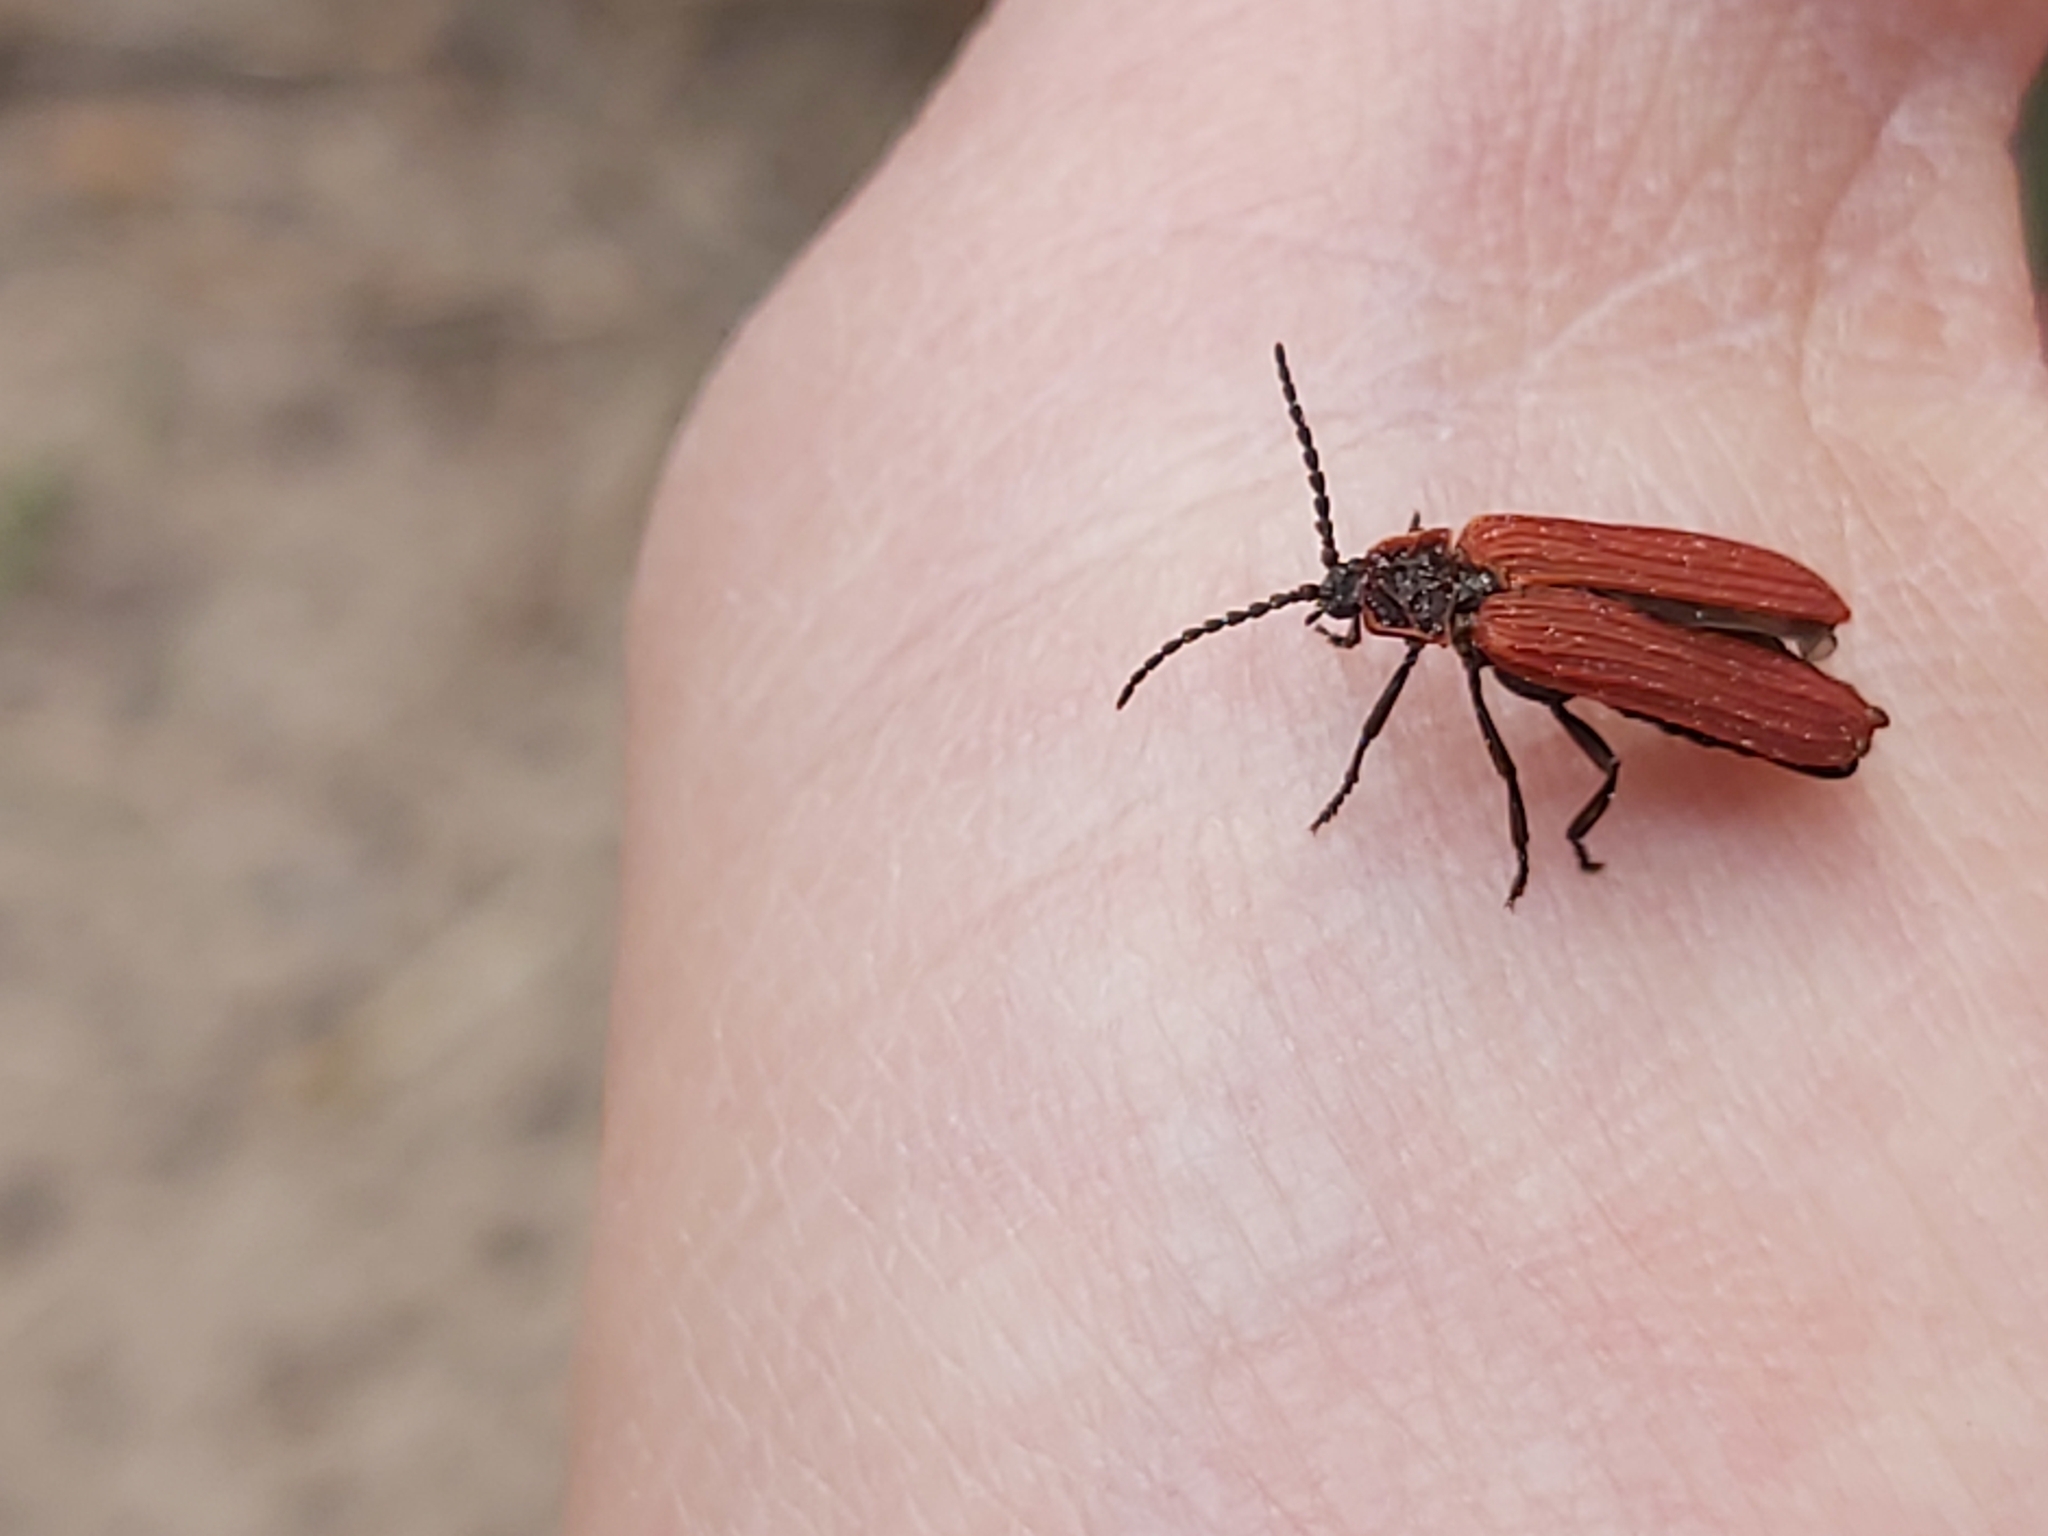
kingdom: Animalia
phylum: Arthropoda
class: Insecta
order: Coleoptera
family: Lycidae
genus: Dictyoptera
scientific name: Dictyoptera aurora
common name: Golden net-winged beetle
